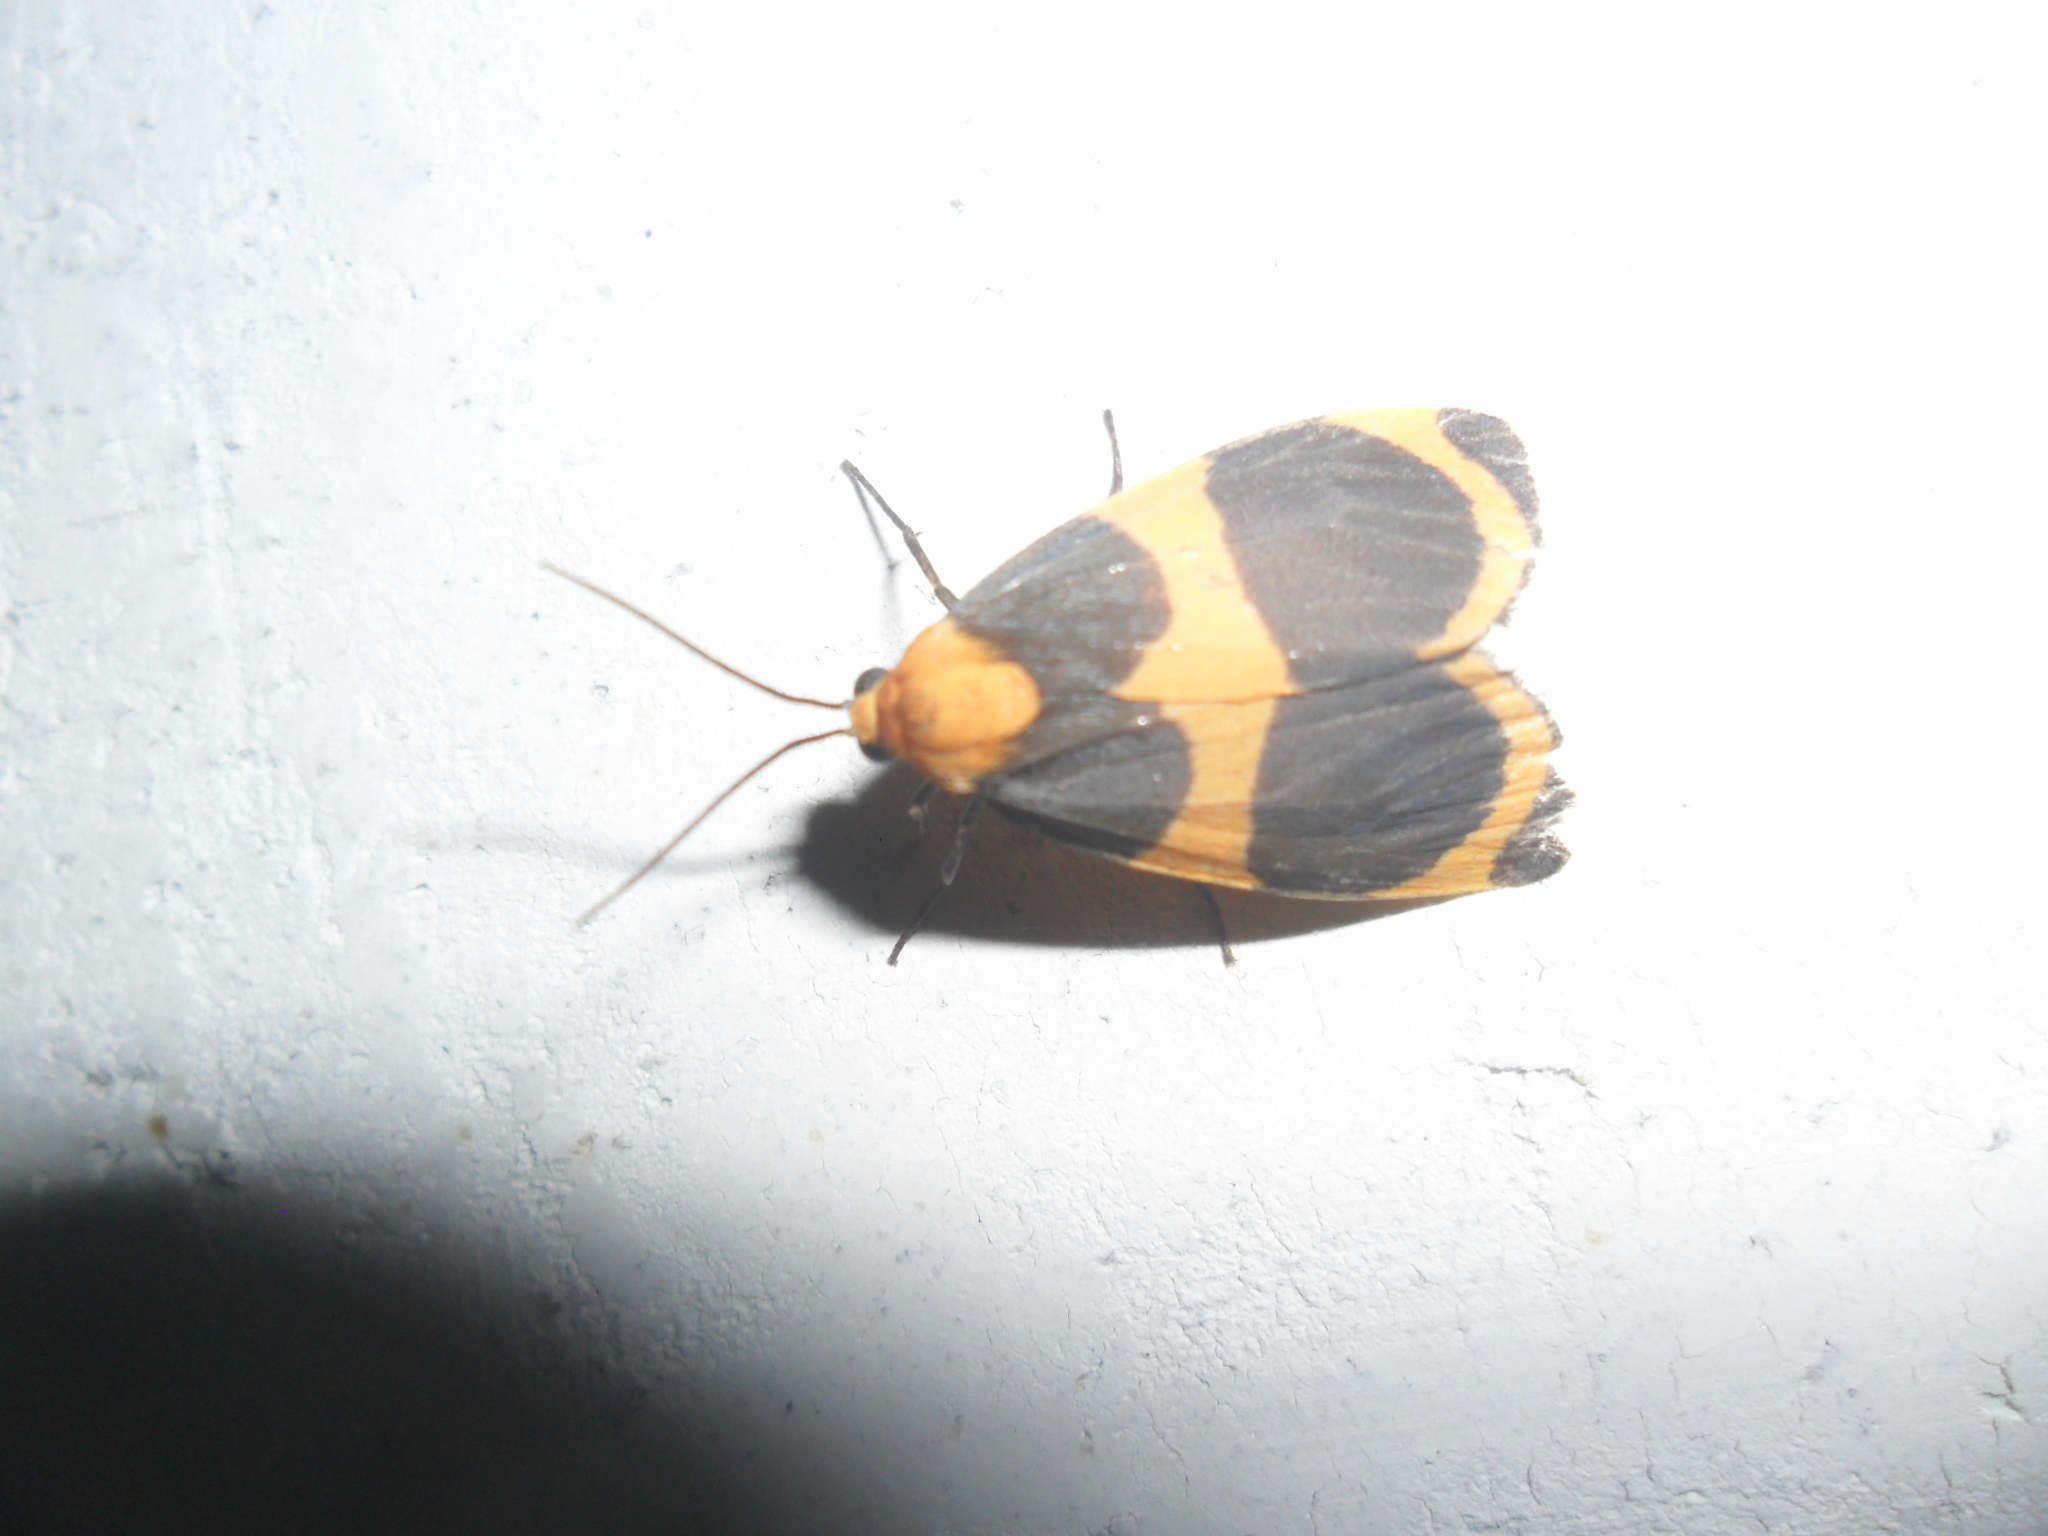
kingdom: Animalia
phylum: Arthropoda
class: Insecta
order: Lepidoptera
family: Erebidae
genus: Eudesmia
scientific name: Eudesmia menea
